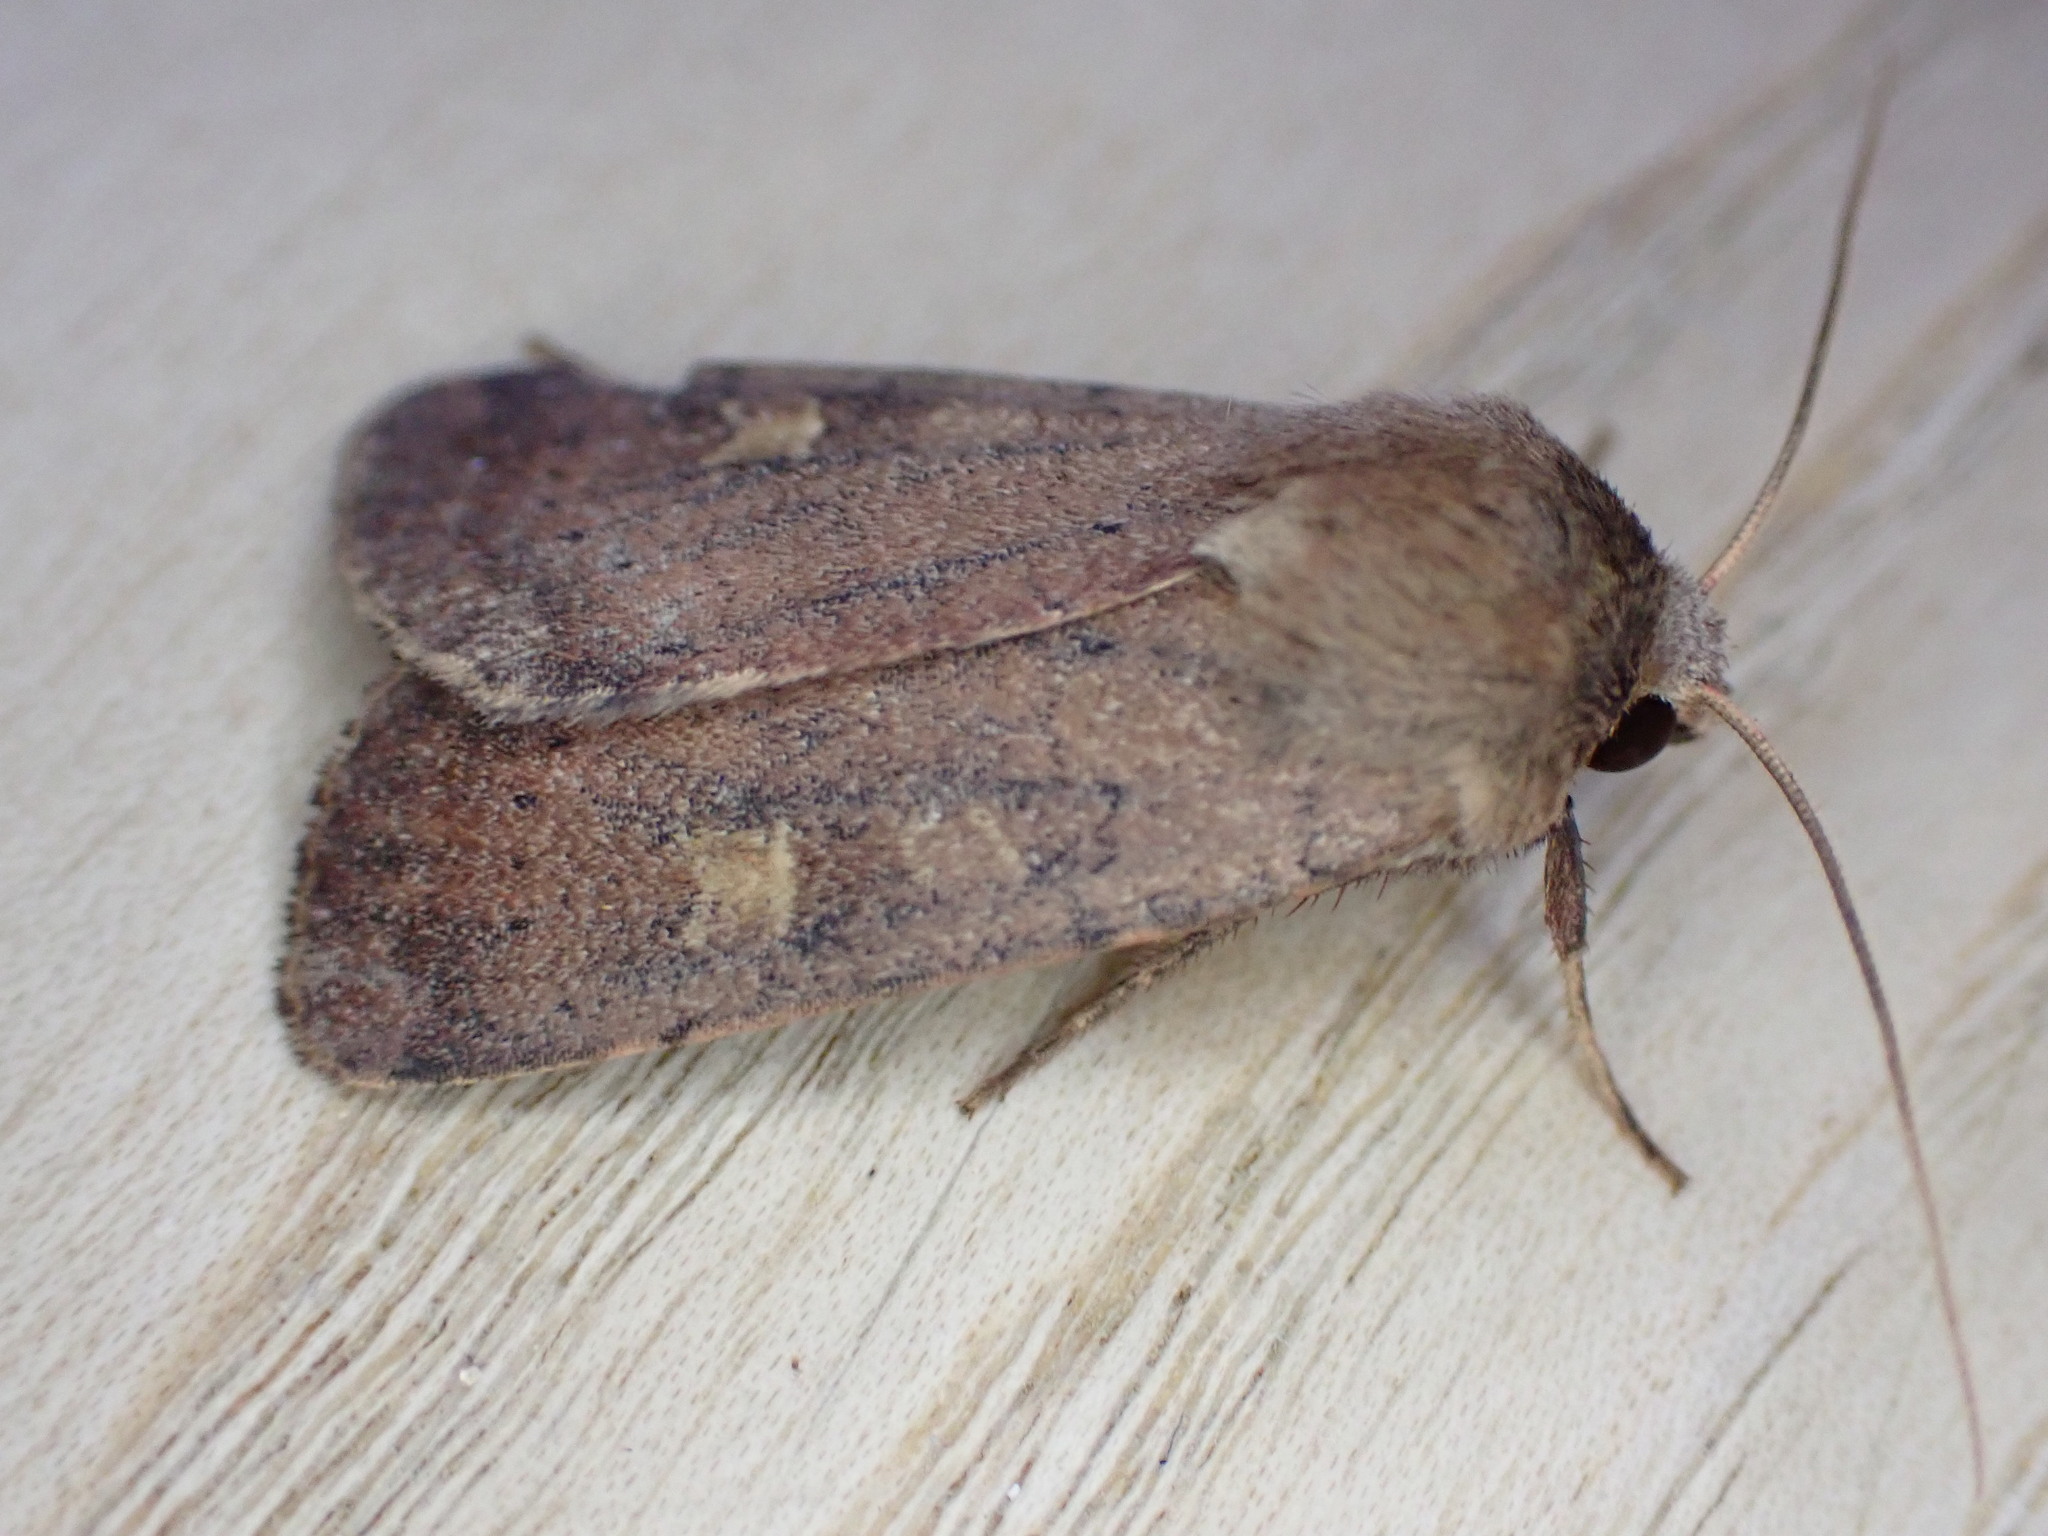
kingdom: Animalia
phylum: Arthropoda
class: Insecta
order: Lepidoptera
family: Noctuidae
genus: Xestia
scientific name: Xestia xanthographa
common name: Square-spot rustic
